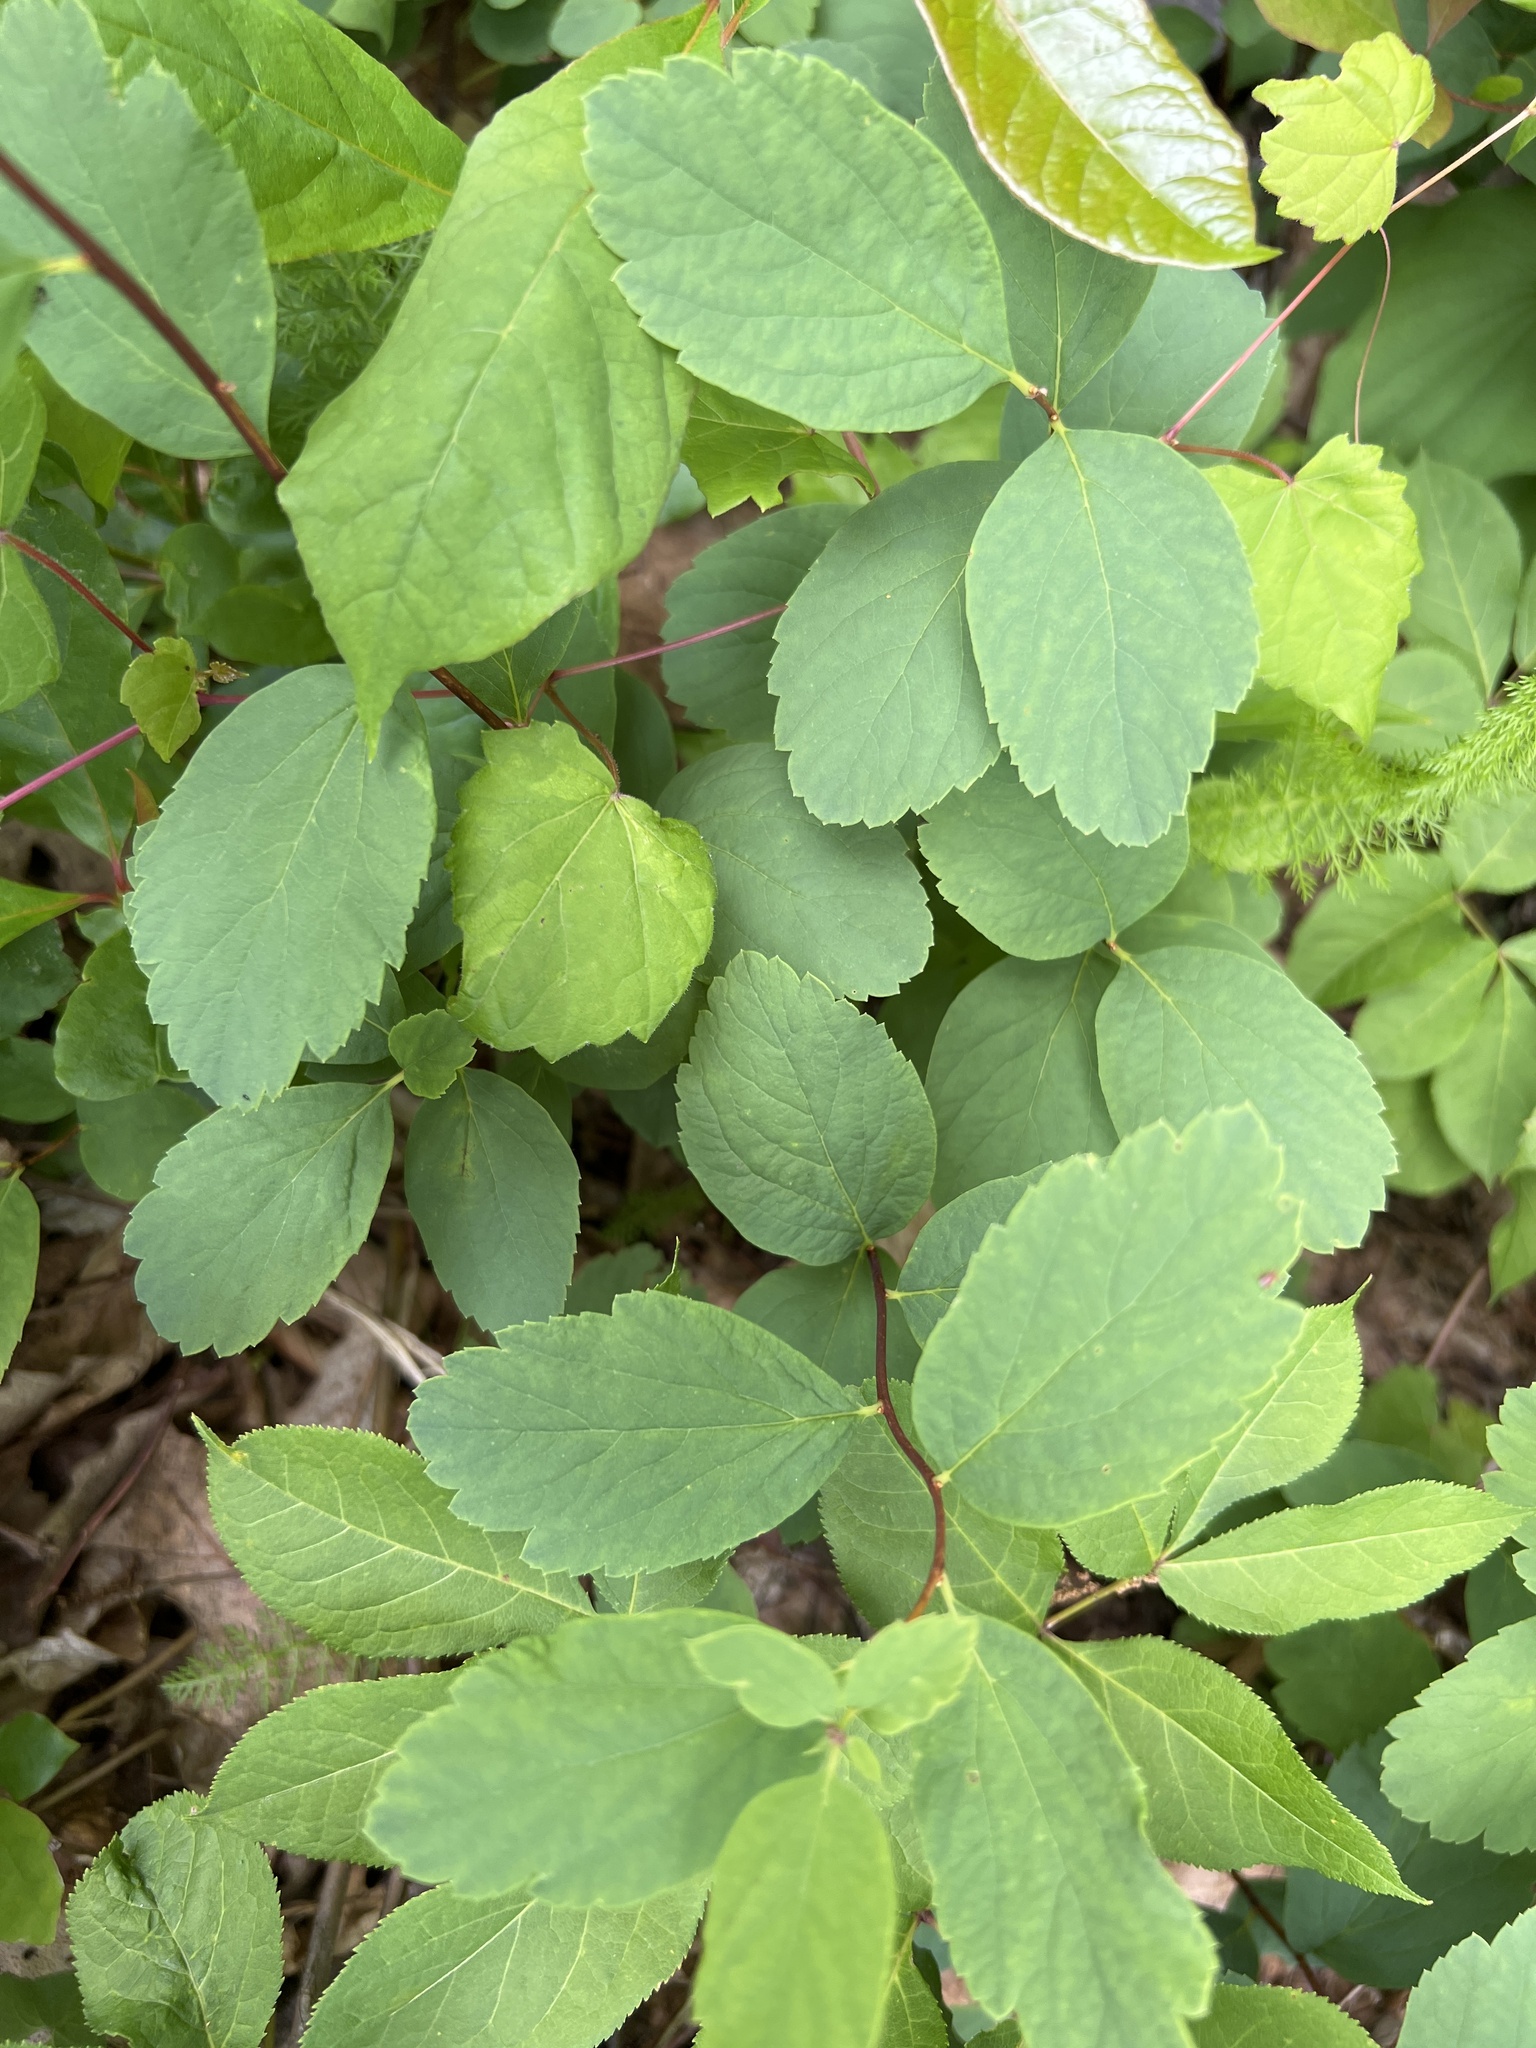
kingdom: Plantae
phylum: Tracheophyta
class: Magnoliopsida
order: Rosales
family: Rosaceae
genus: Spiraea
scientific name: Spiraea corymbosa
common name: Corymbed meadowsweet
